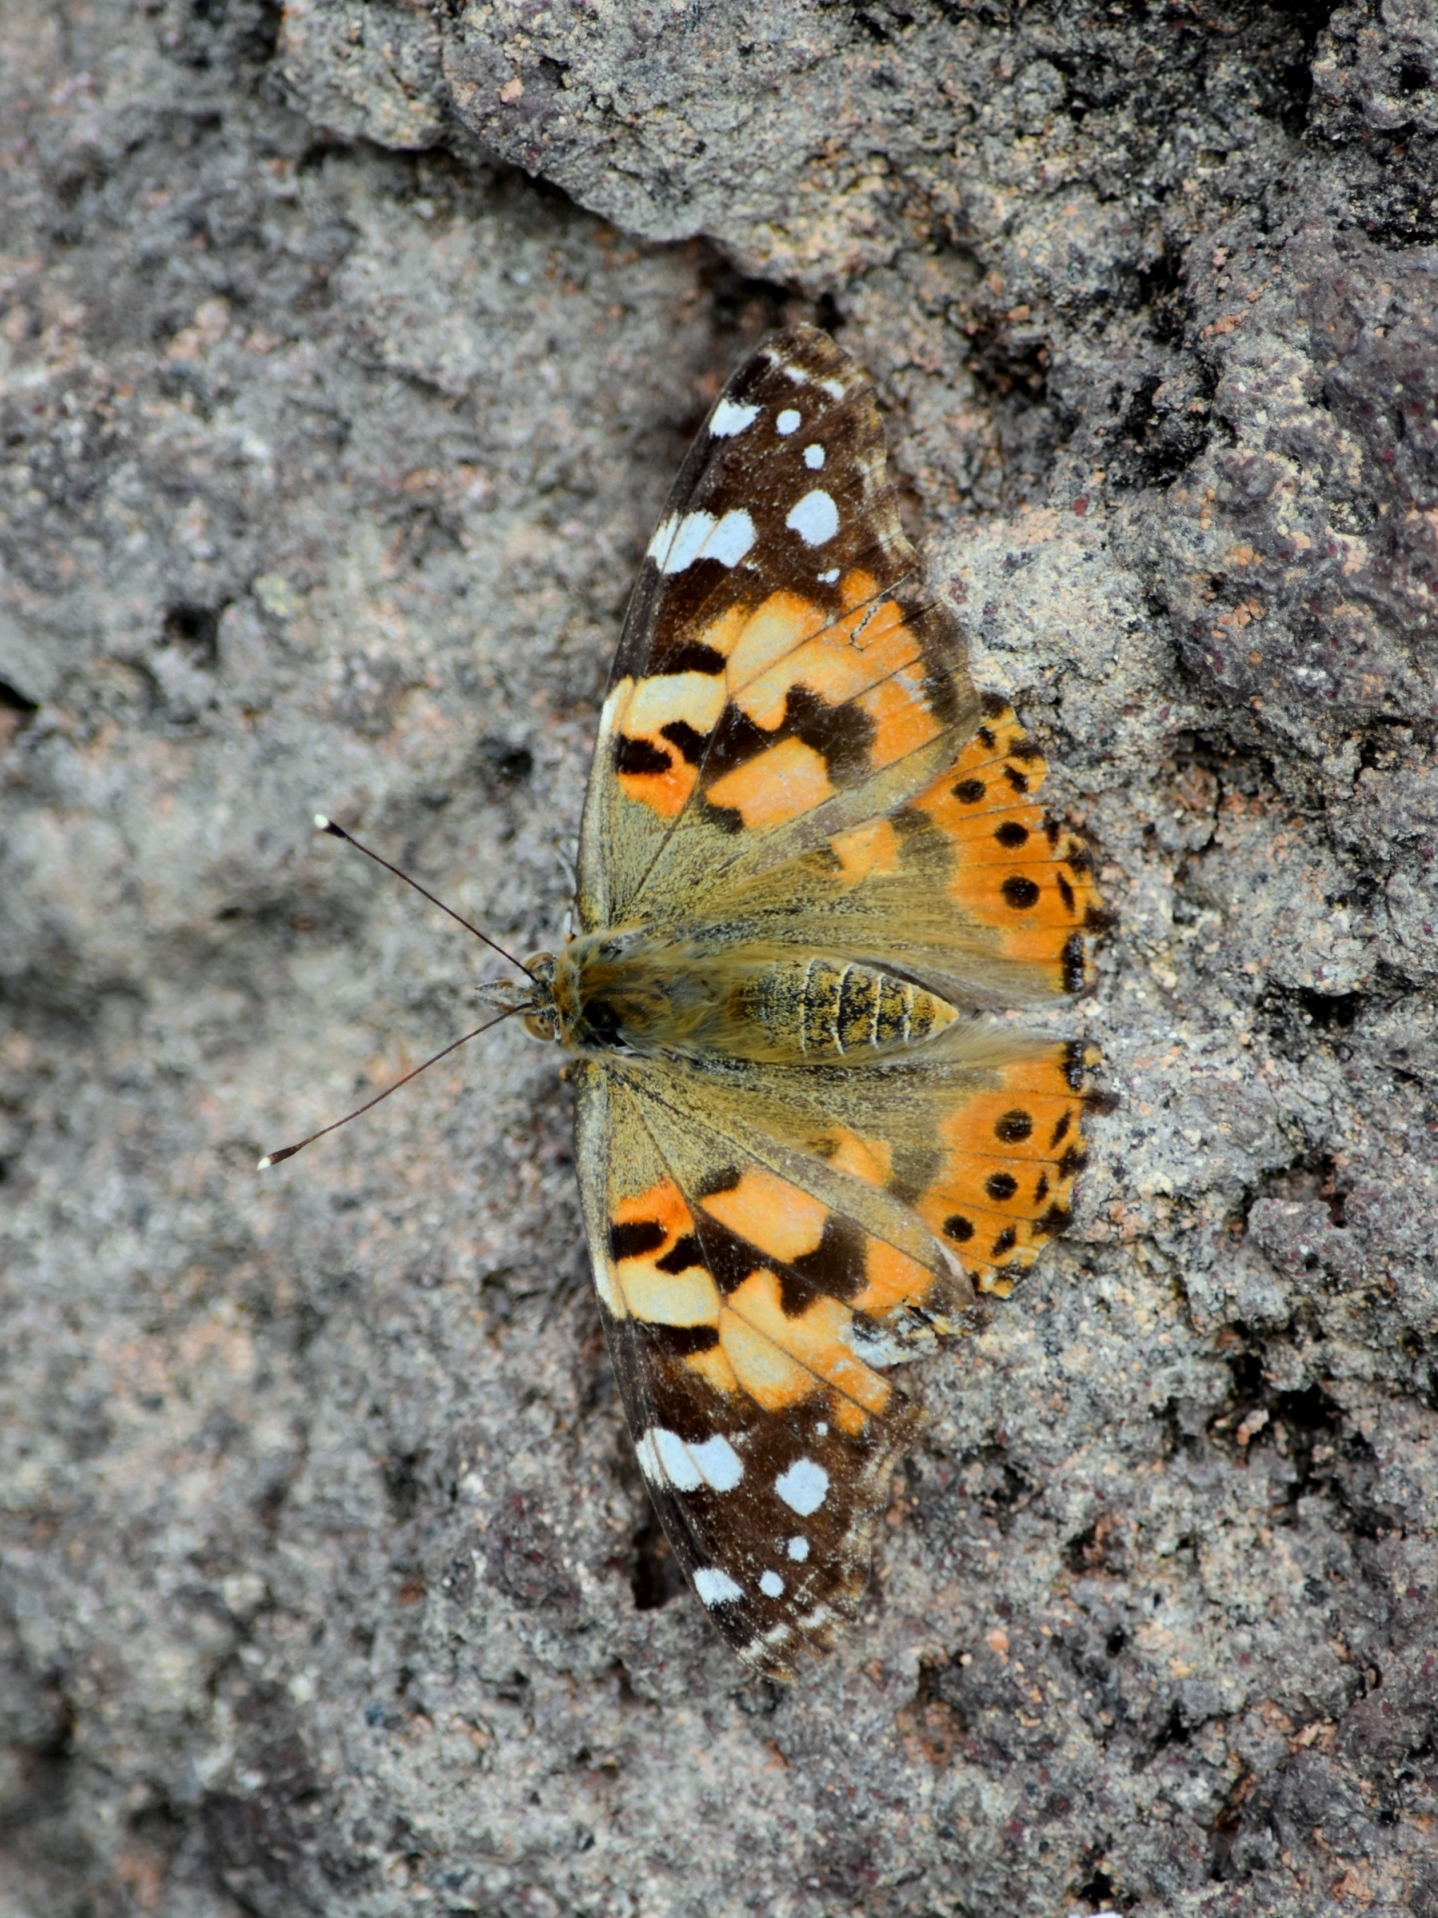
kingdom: Animalia
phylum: Arthropoda
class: Insecta
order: Lepidoptera
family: Nymphalidae
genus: Vanessa
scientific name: Vanessa cardui
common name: Painted lady
